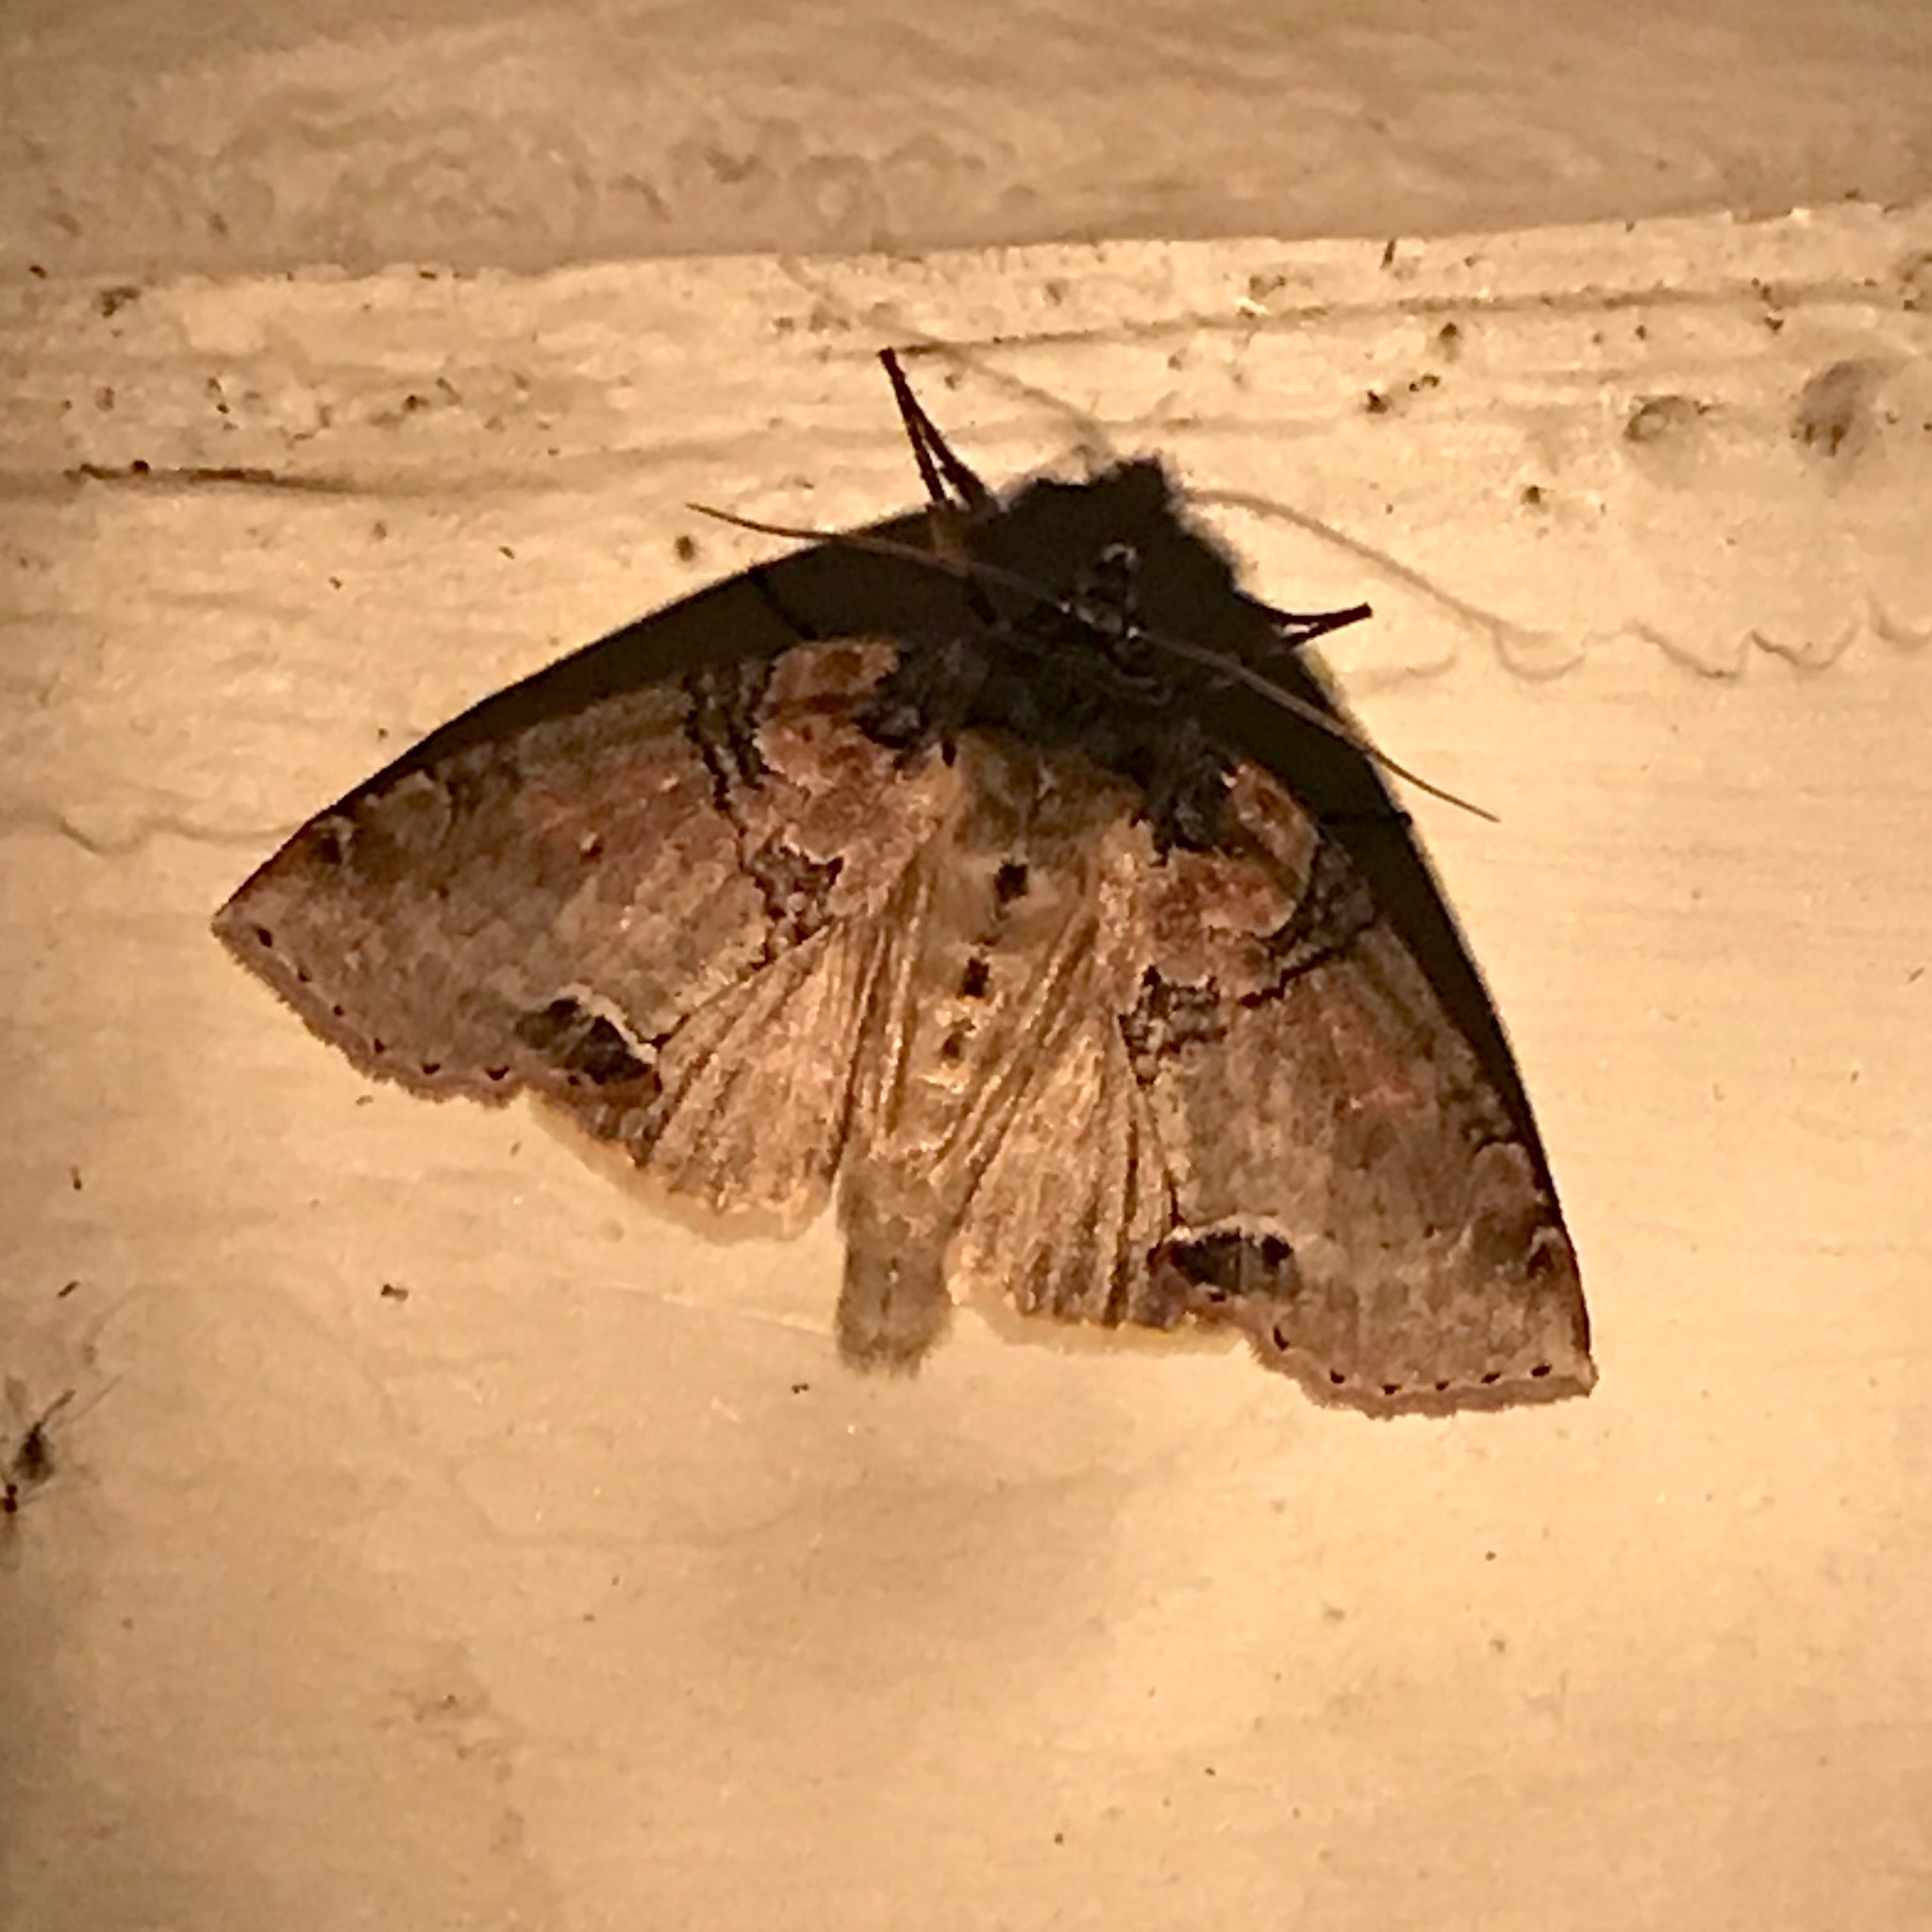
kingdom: Animalia
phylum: Arthropoda
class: Insecta
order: Lepidoptera
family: Drepanidae
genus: Pseudothyatira
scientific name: Pseudothyatira cymatophoroides
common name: Tufted thyatirid moth
